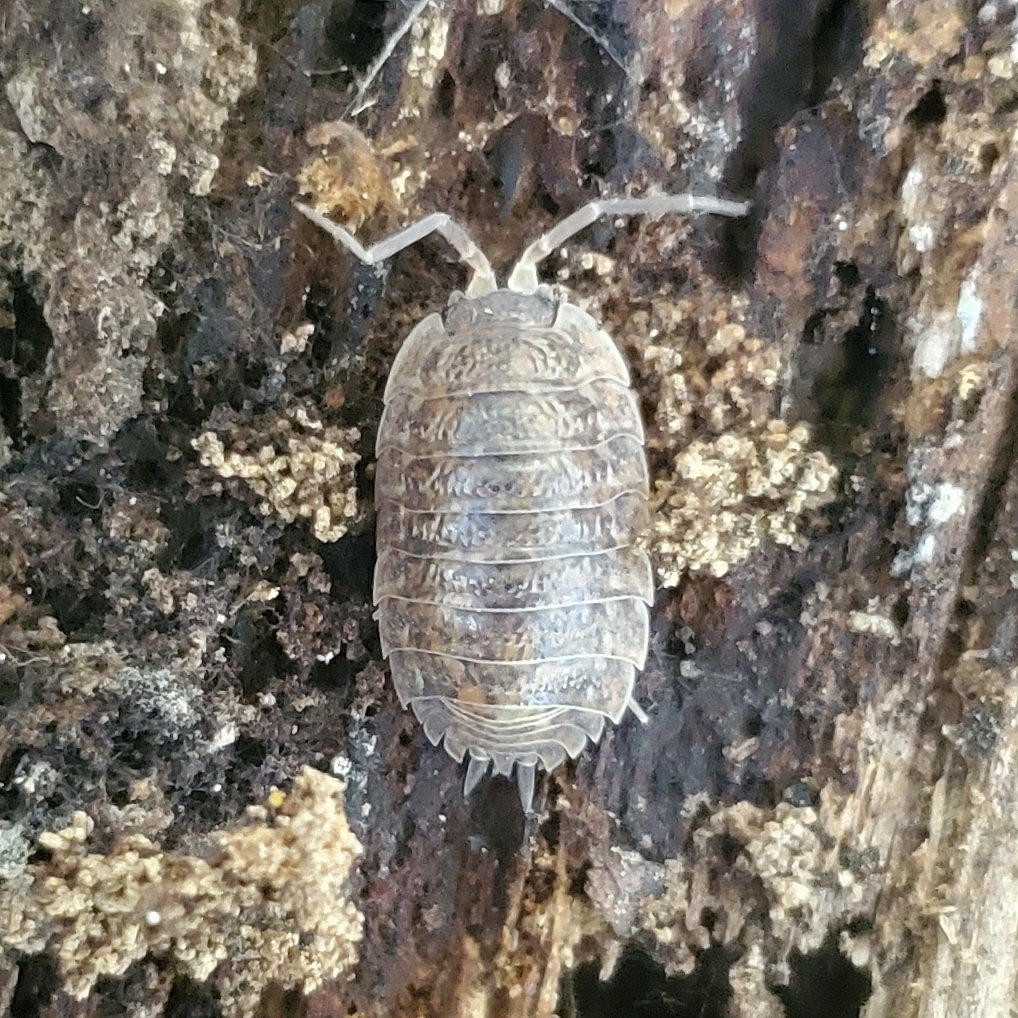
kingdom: Animalia
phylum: Arthropoda
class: Malacostraca
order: Isopoda
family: Trachelipodidae
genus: Trachelipus
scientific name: Trachelipus rathkii
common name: Isopod
